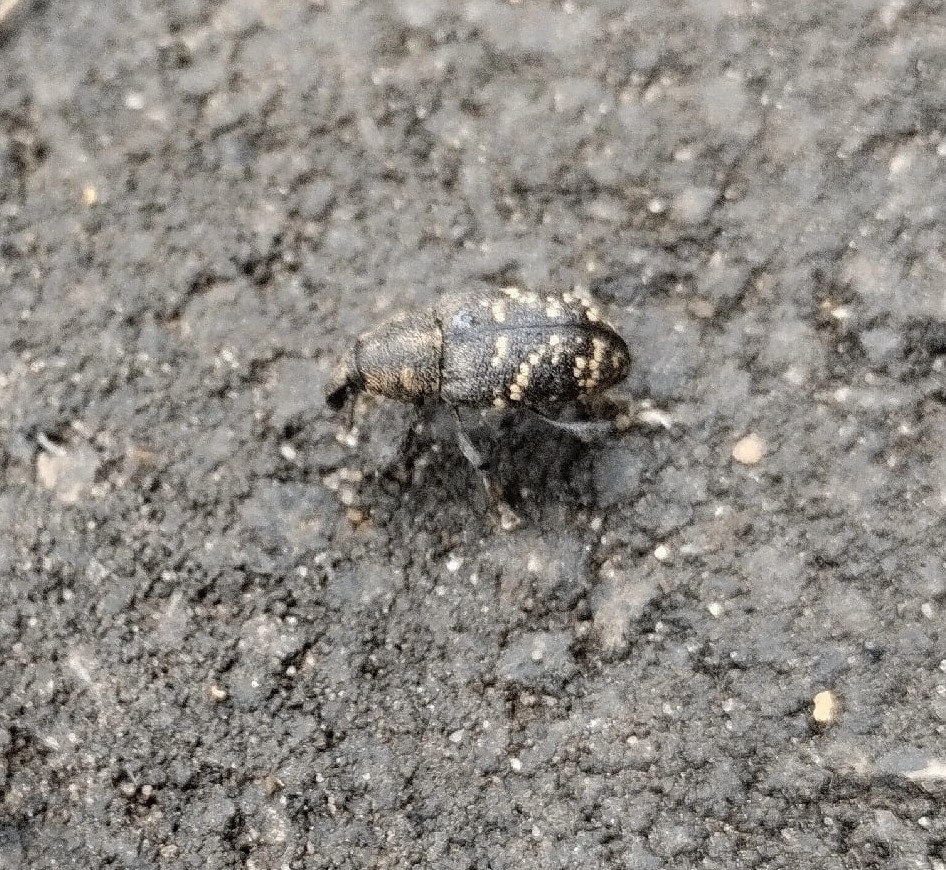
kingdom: Animalia
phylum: Arthropoda
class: Insecta
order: Coleoptera
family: Curculionidae
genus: Hylobius
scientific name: Hylobius abietis
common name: Large pine weevil
